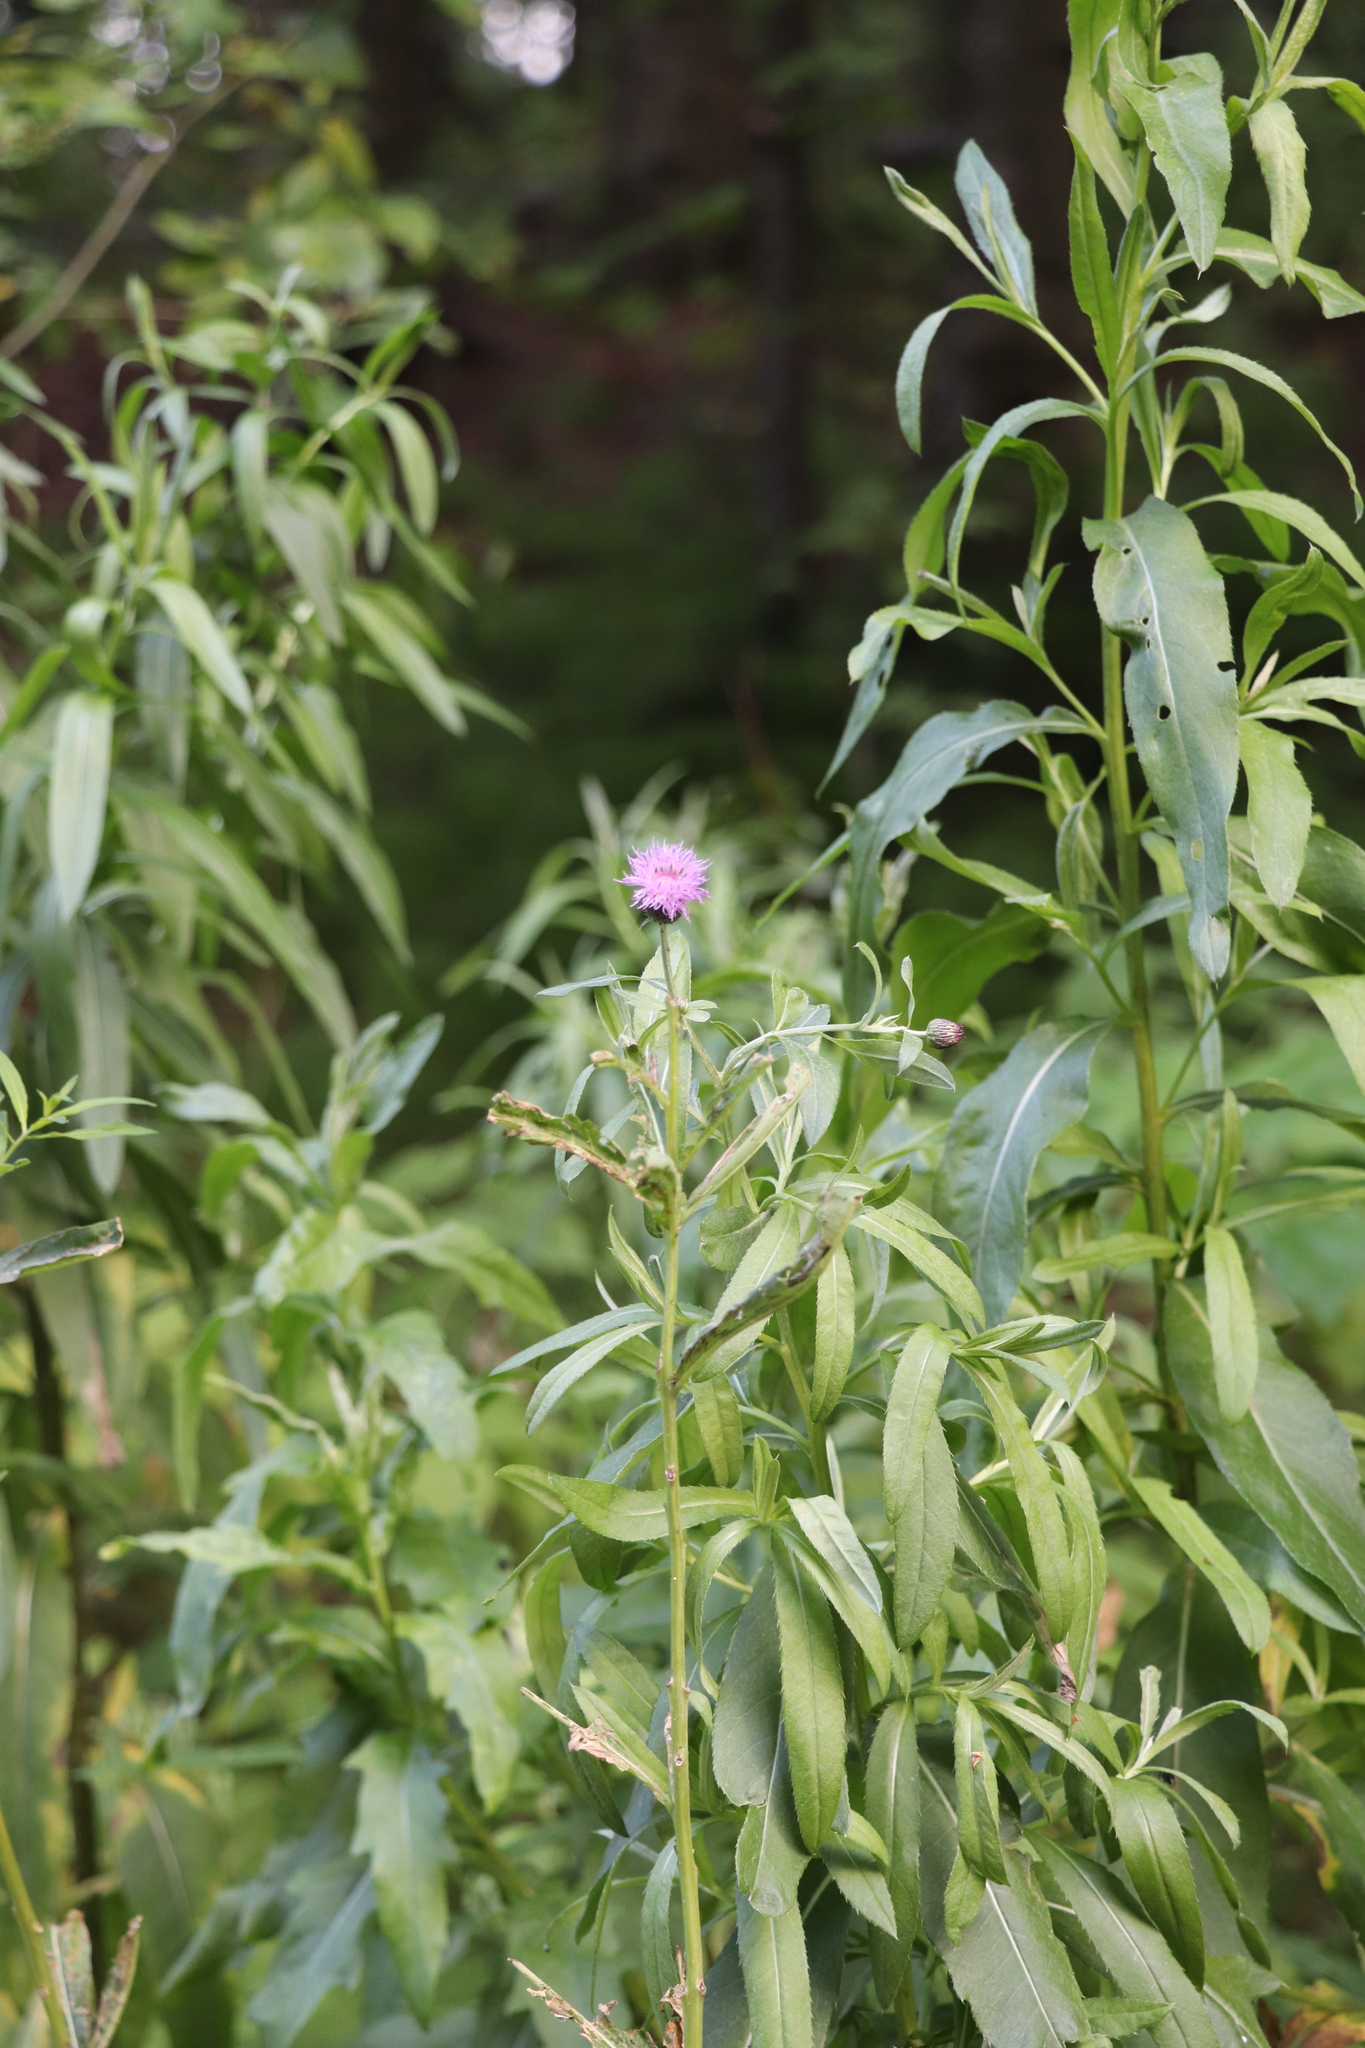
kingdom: Plantae
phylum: Tracheophyta
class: Magnoliopsida
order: Asterales
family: Asteraceae
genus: Cirsium
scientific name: Cirsium arvense
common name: Creeping thistle
